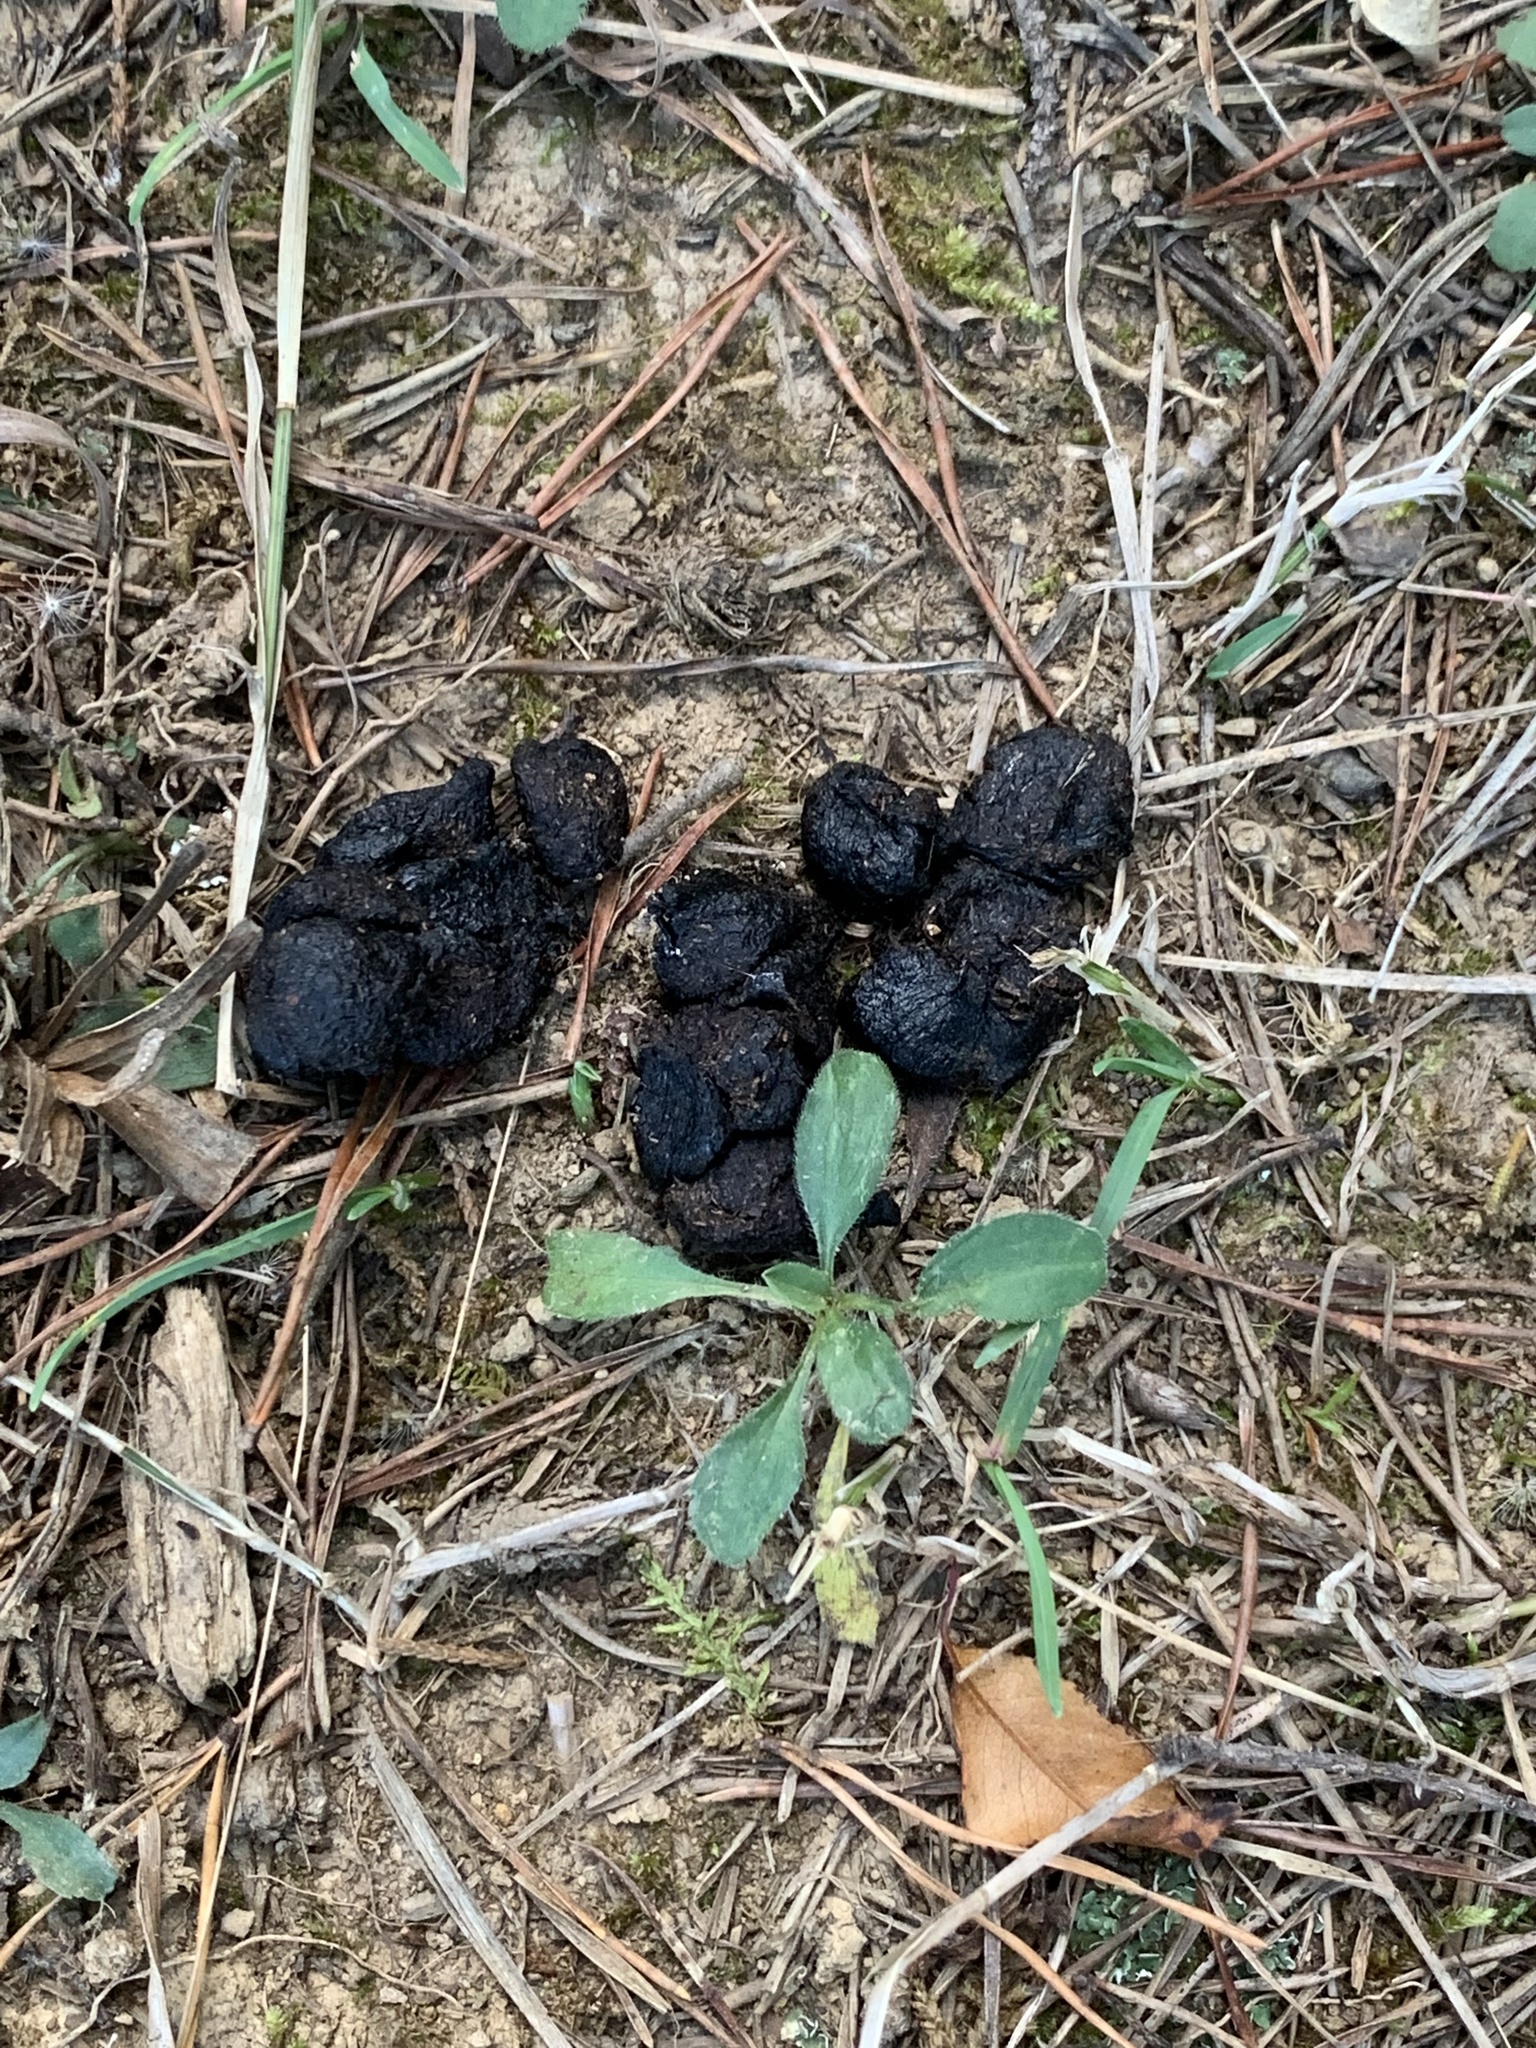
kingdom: Animalia
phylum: Chordata
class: Mammalia
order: Artiodactyla
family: Cervidae
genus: Odocoileus
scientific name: Odocoileus virginianus
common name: White-tailed deer
